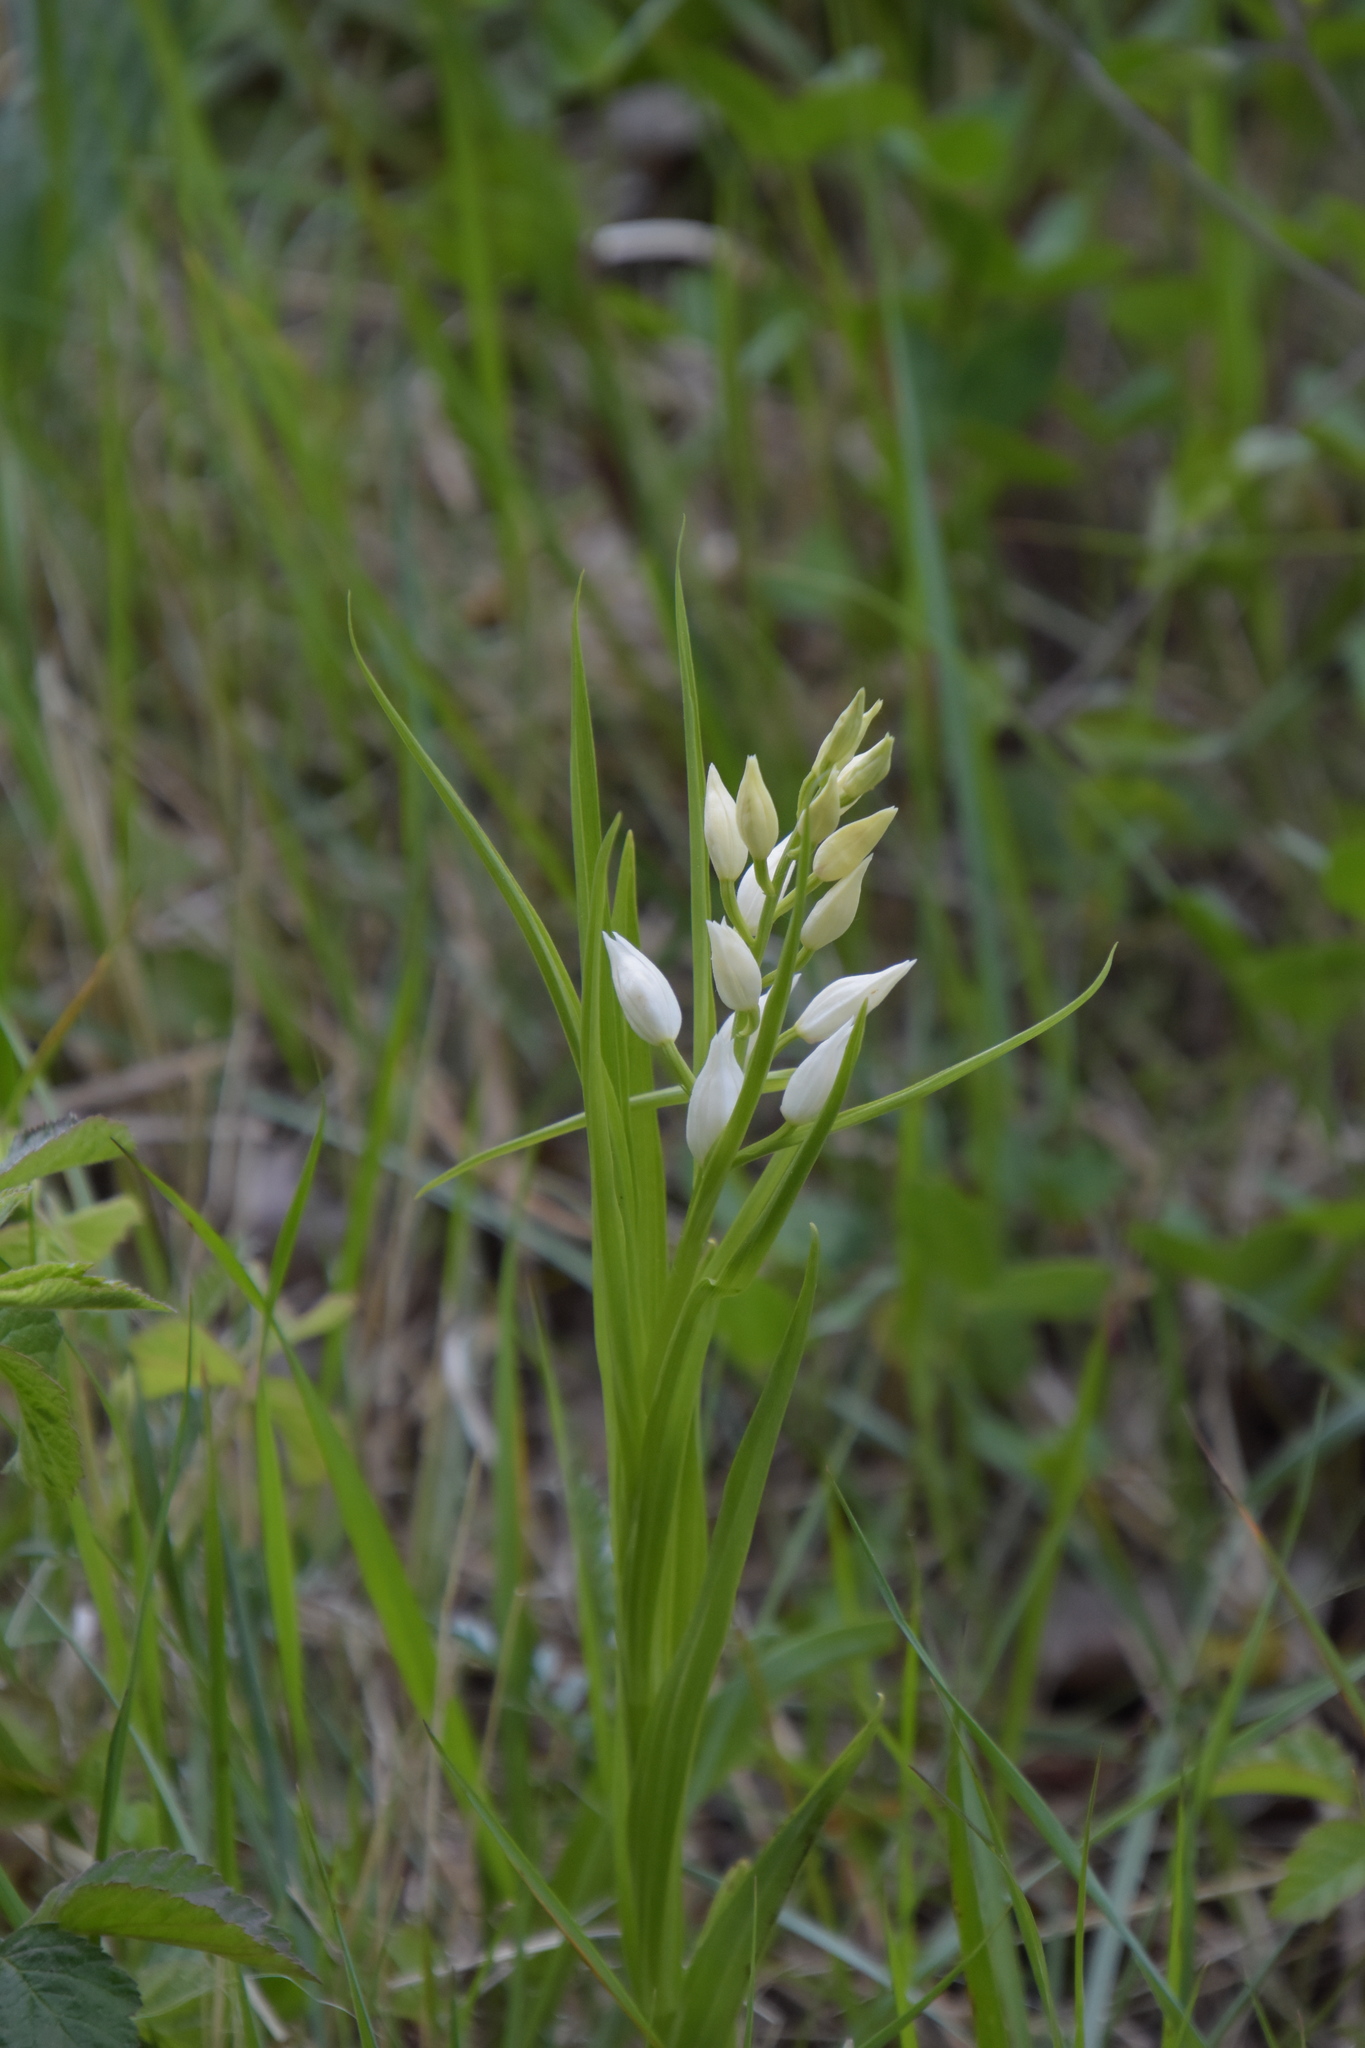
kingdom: Plantae
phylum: Tracheophyta
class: Liliopsida
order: Asparagales
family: Orchidaceae
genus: Cephalanthera
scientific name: Cephalanthera longifolia
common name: Narrow-leaved helleborine
